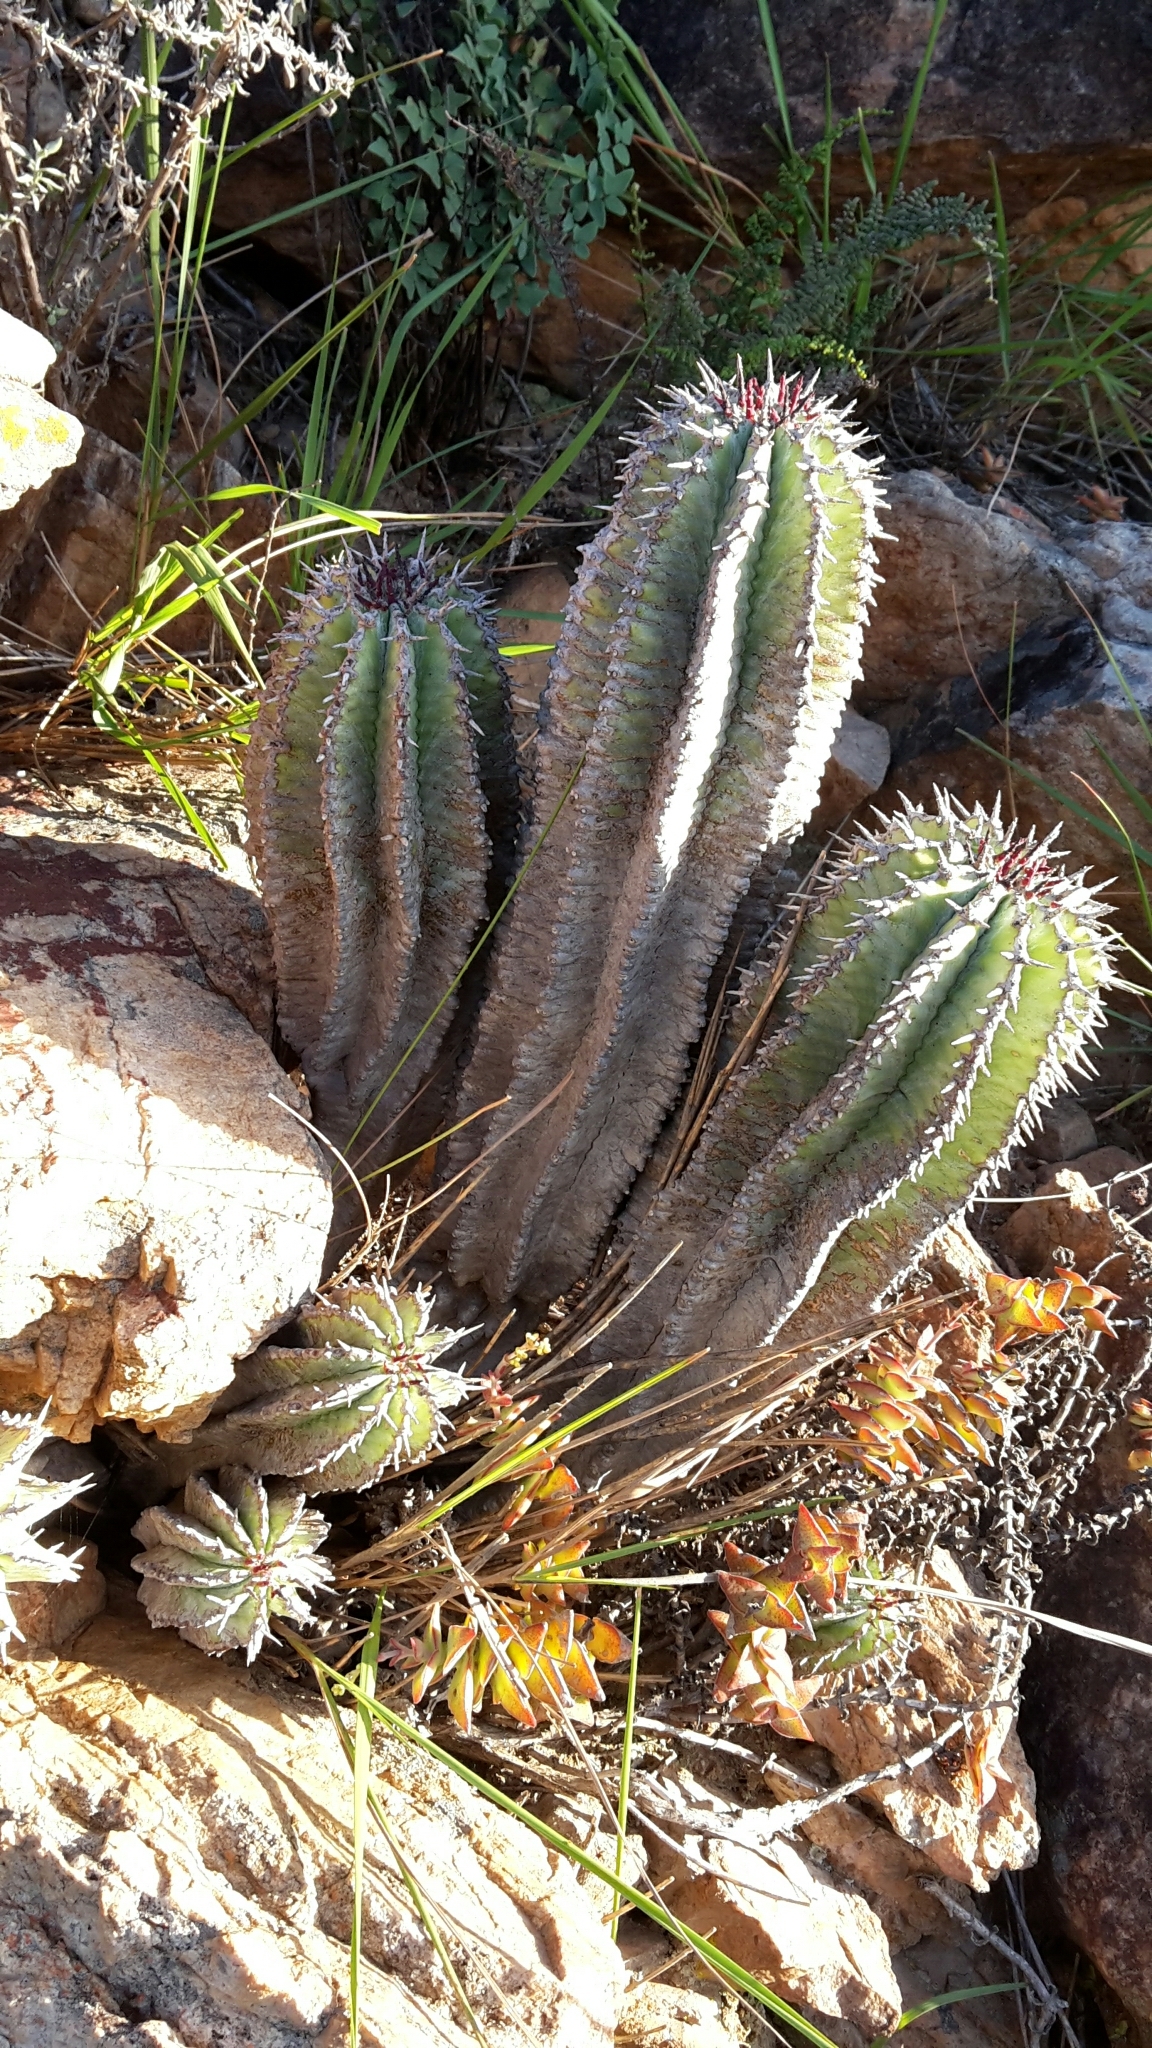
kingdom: Plantae
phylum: Tracheophyta
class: Magnoliopsida
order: Malpighiales
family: Euphorbiaceae
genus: Euphorbia
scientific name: Euphorbia polygona
